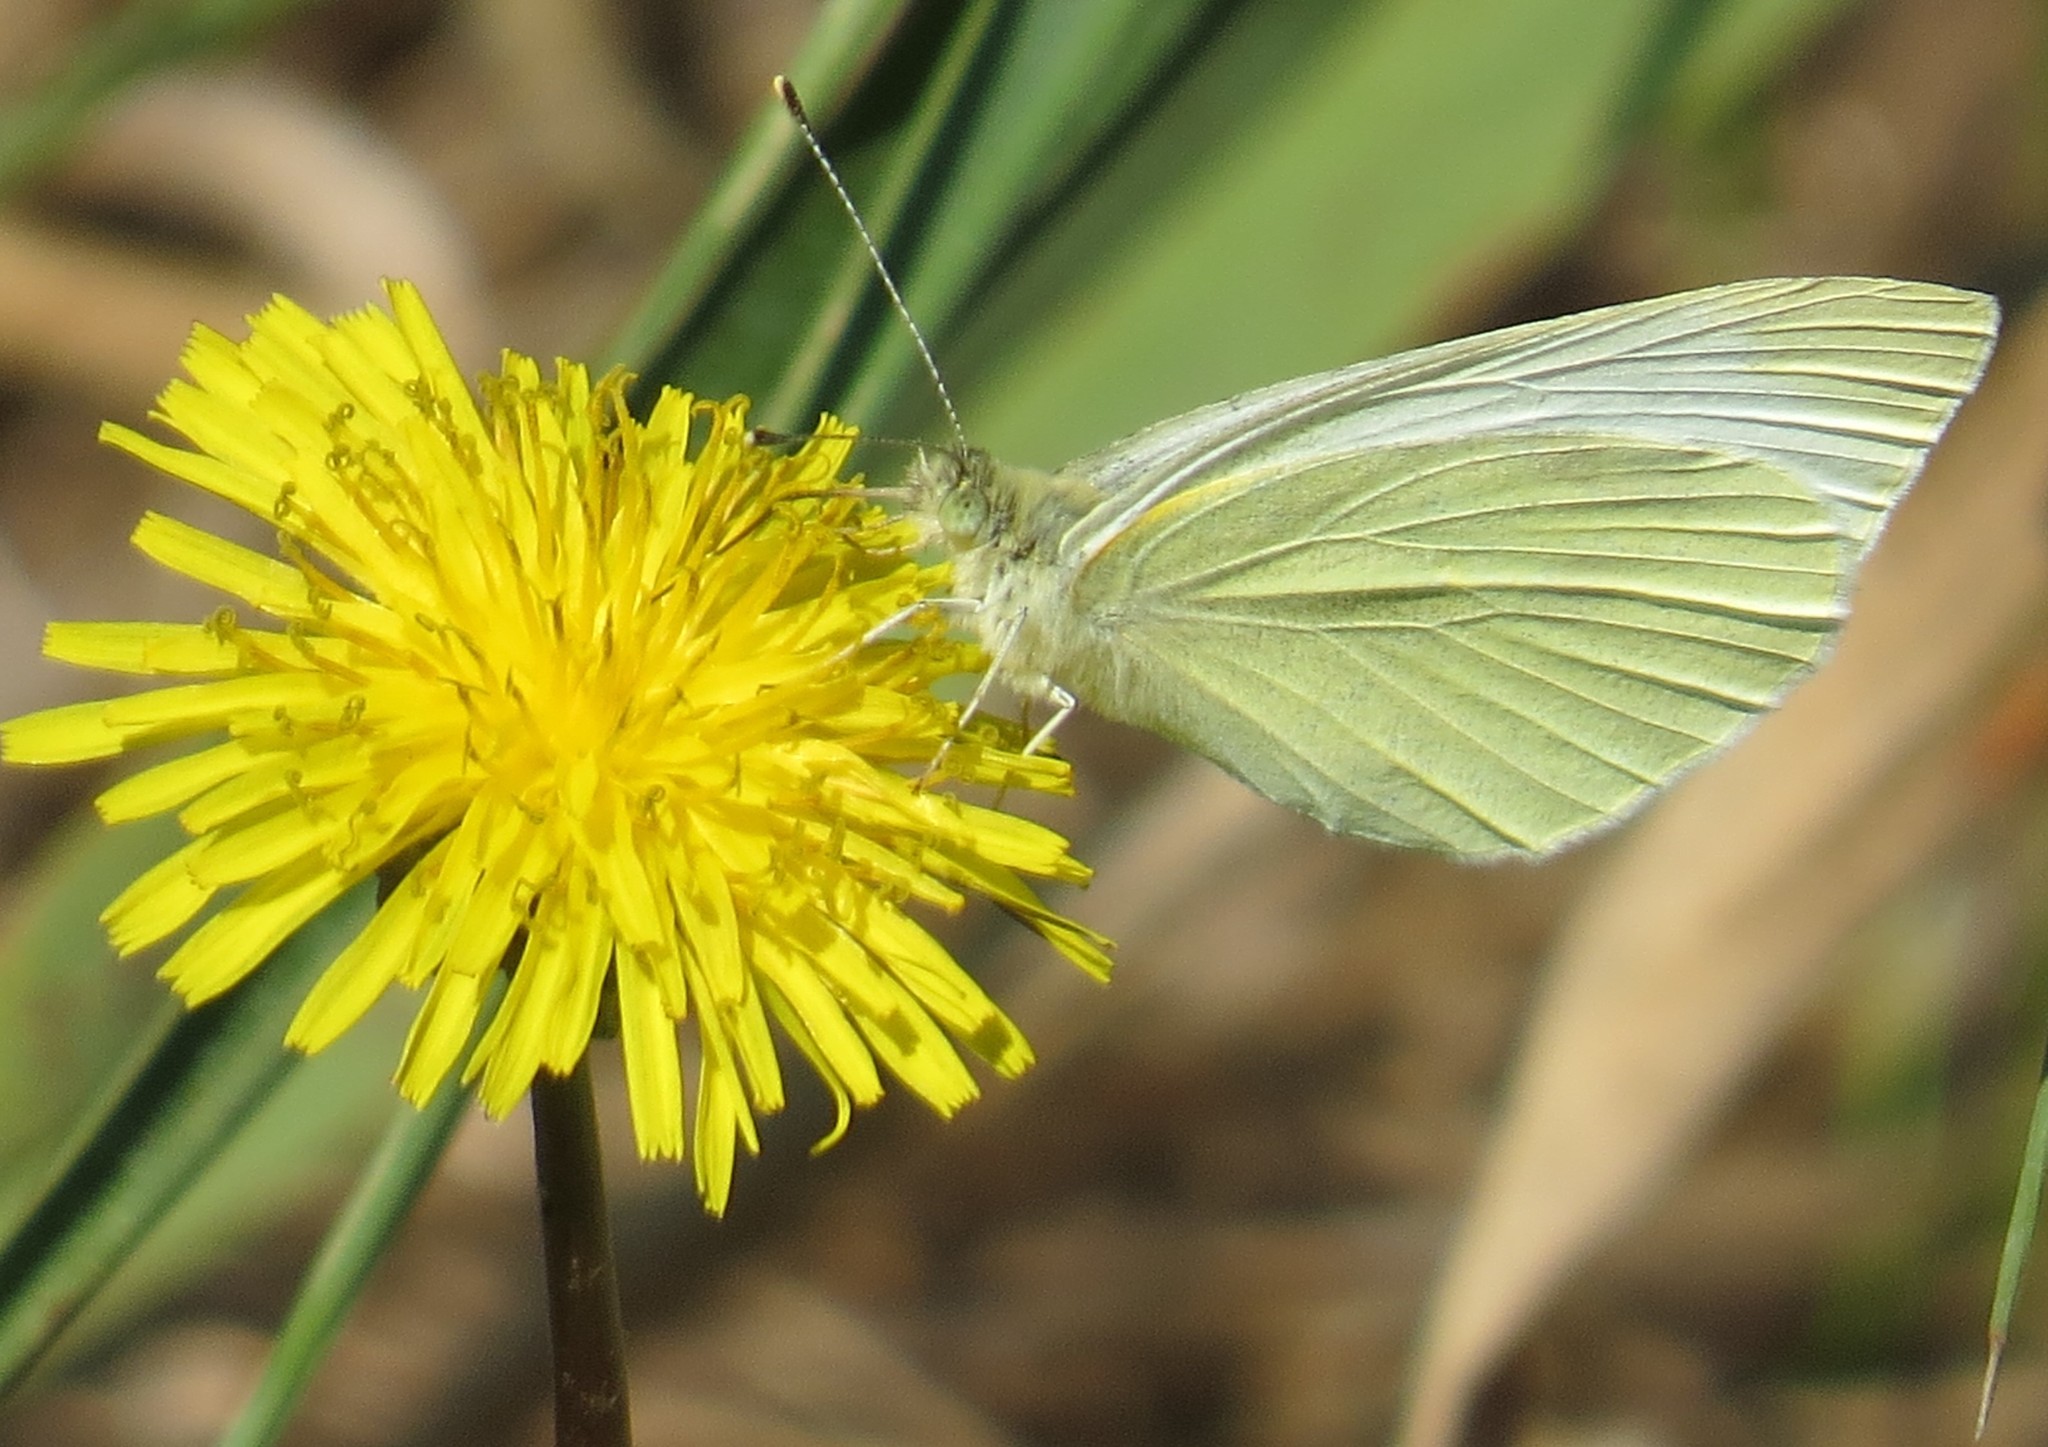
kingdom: Animalia
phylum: Arthropoda
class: Insecta
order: Lepidoptera
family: Pieridae
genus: Pieris
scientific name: Pieris rapae
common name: Small white
